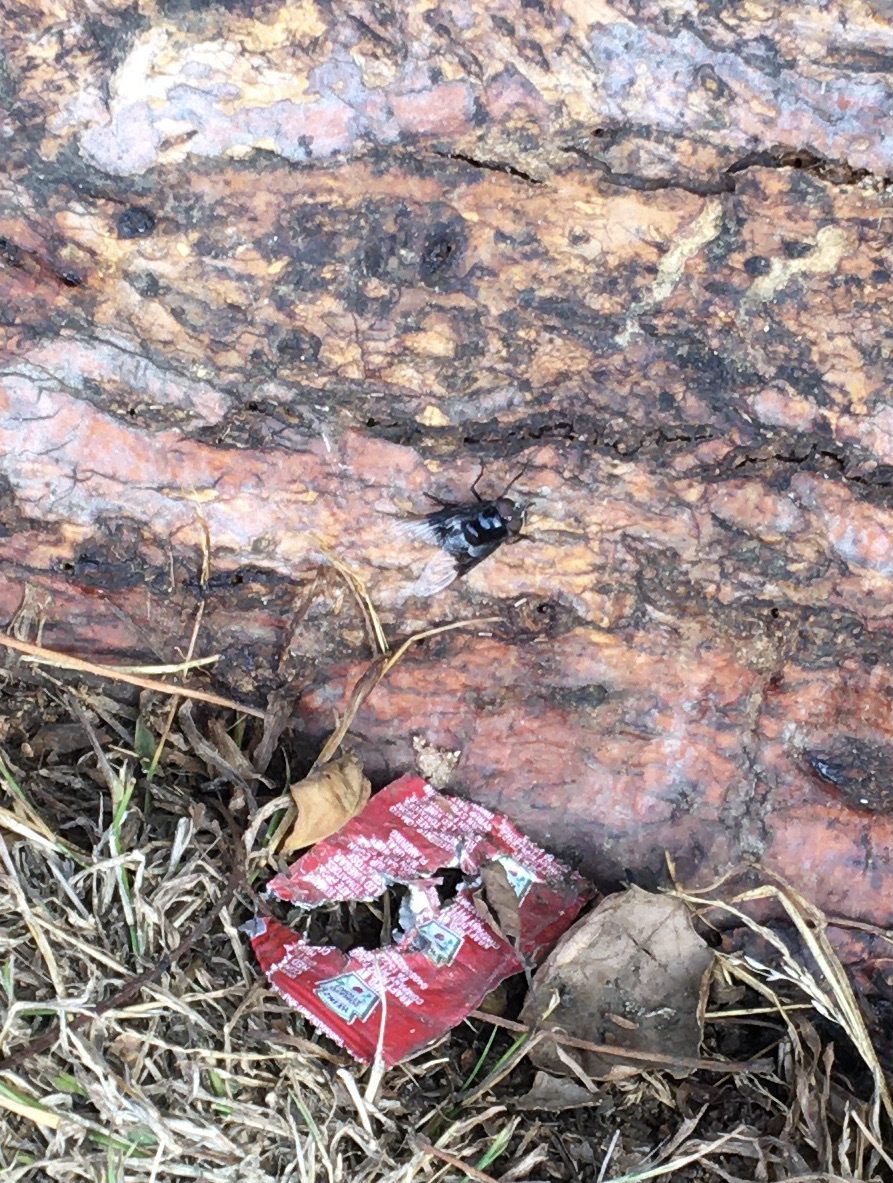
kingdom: Animalia
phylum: Arthropoda
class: Insecta
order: Diptera
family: Syrphidae
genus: Copestylum
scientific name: Copestylum
